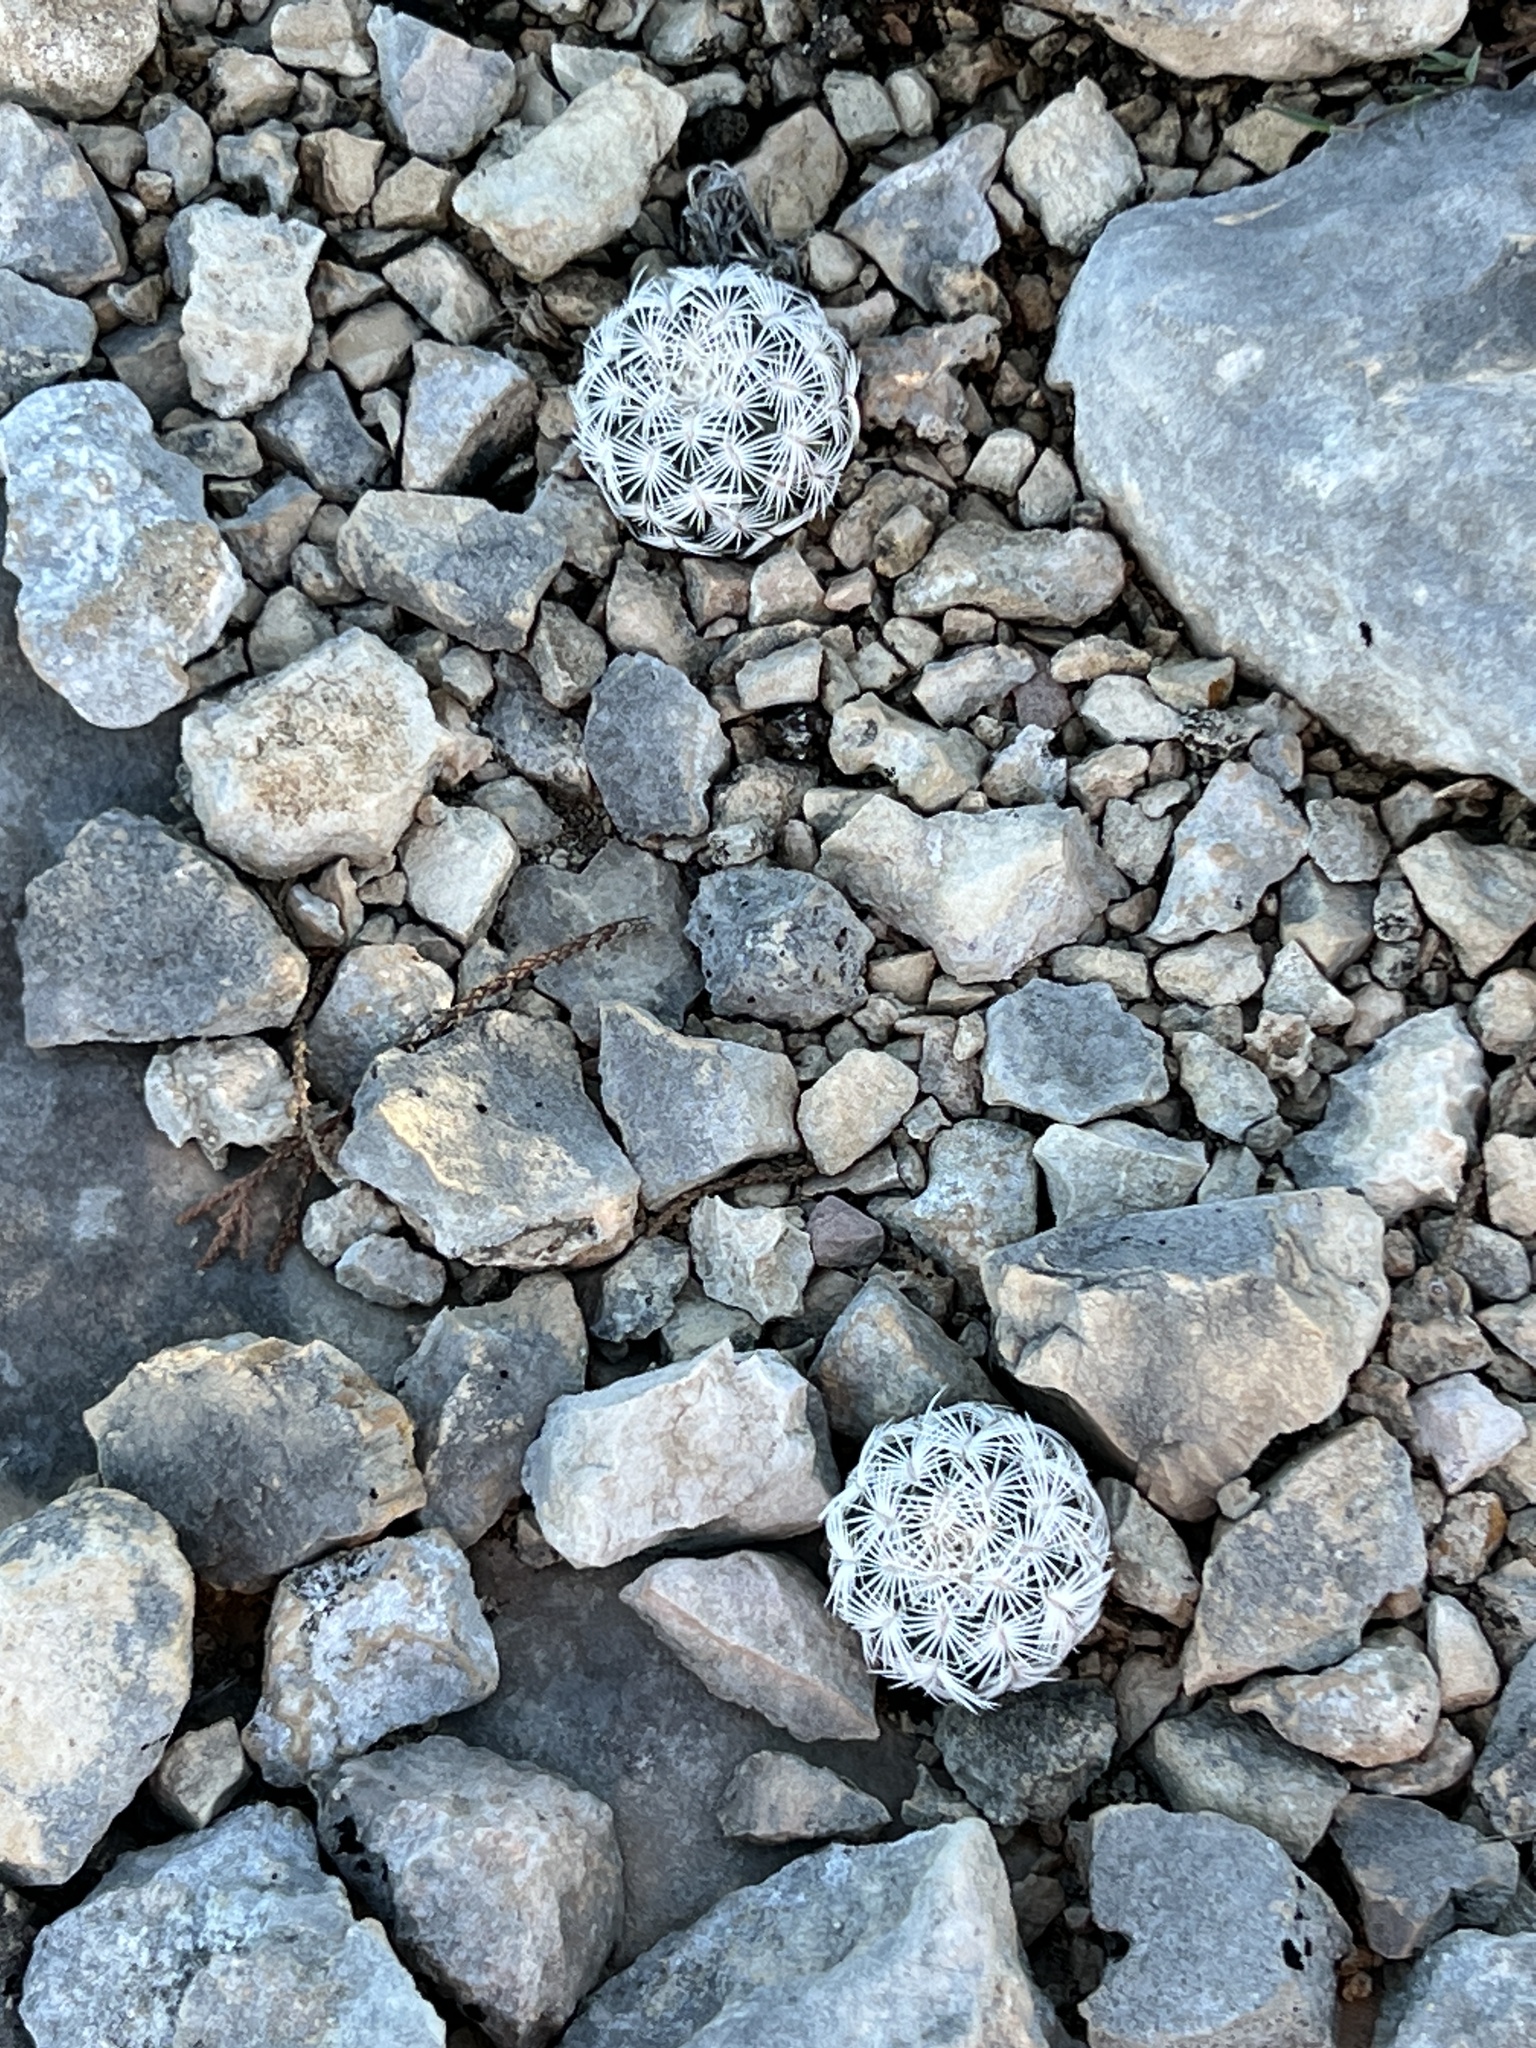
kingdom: Plantae
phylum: Tracheophyta
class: Magnoliopsida
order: Caryophyllales
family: Cactaceae
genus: Echinocereus
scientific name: Echinocereus reichenbachii
